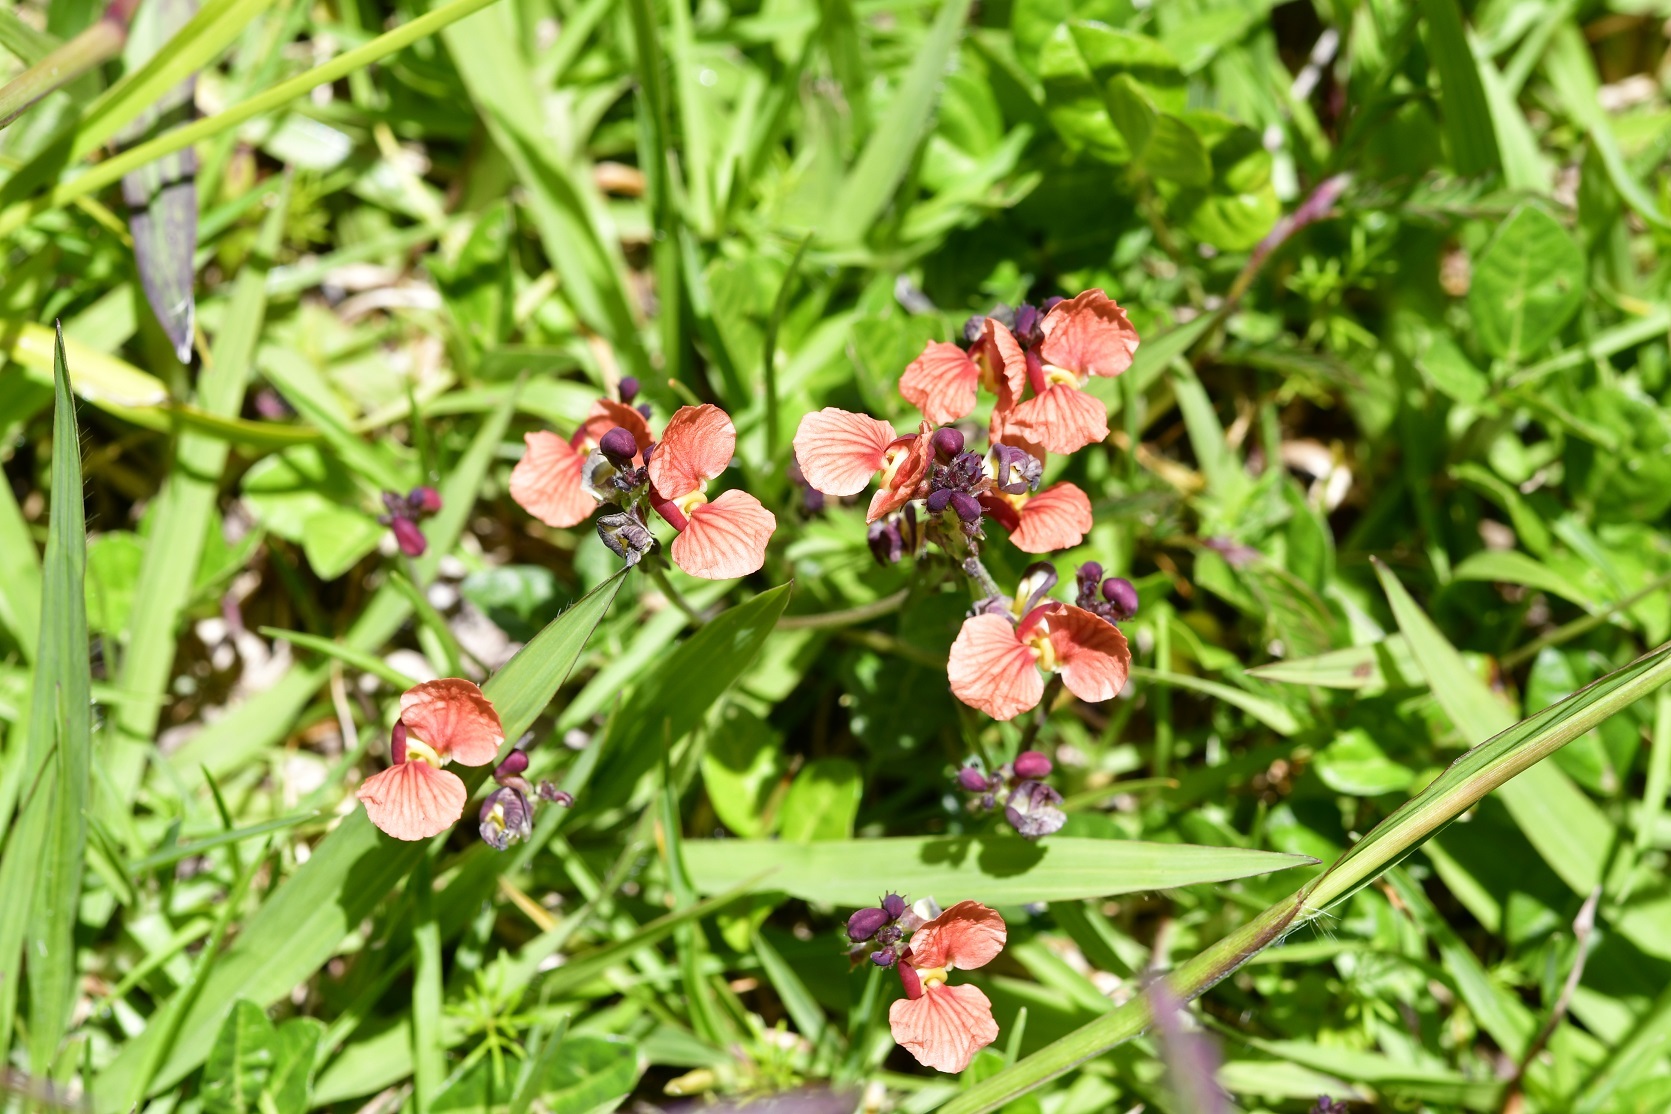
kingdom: Plantae
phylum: Tracheophyta
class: Magnoliopsida
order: Fabales
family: Fabaceae
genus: Macroptilium
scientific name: Macroptilium gibbosifolium
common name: Variableleaf bushbean
